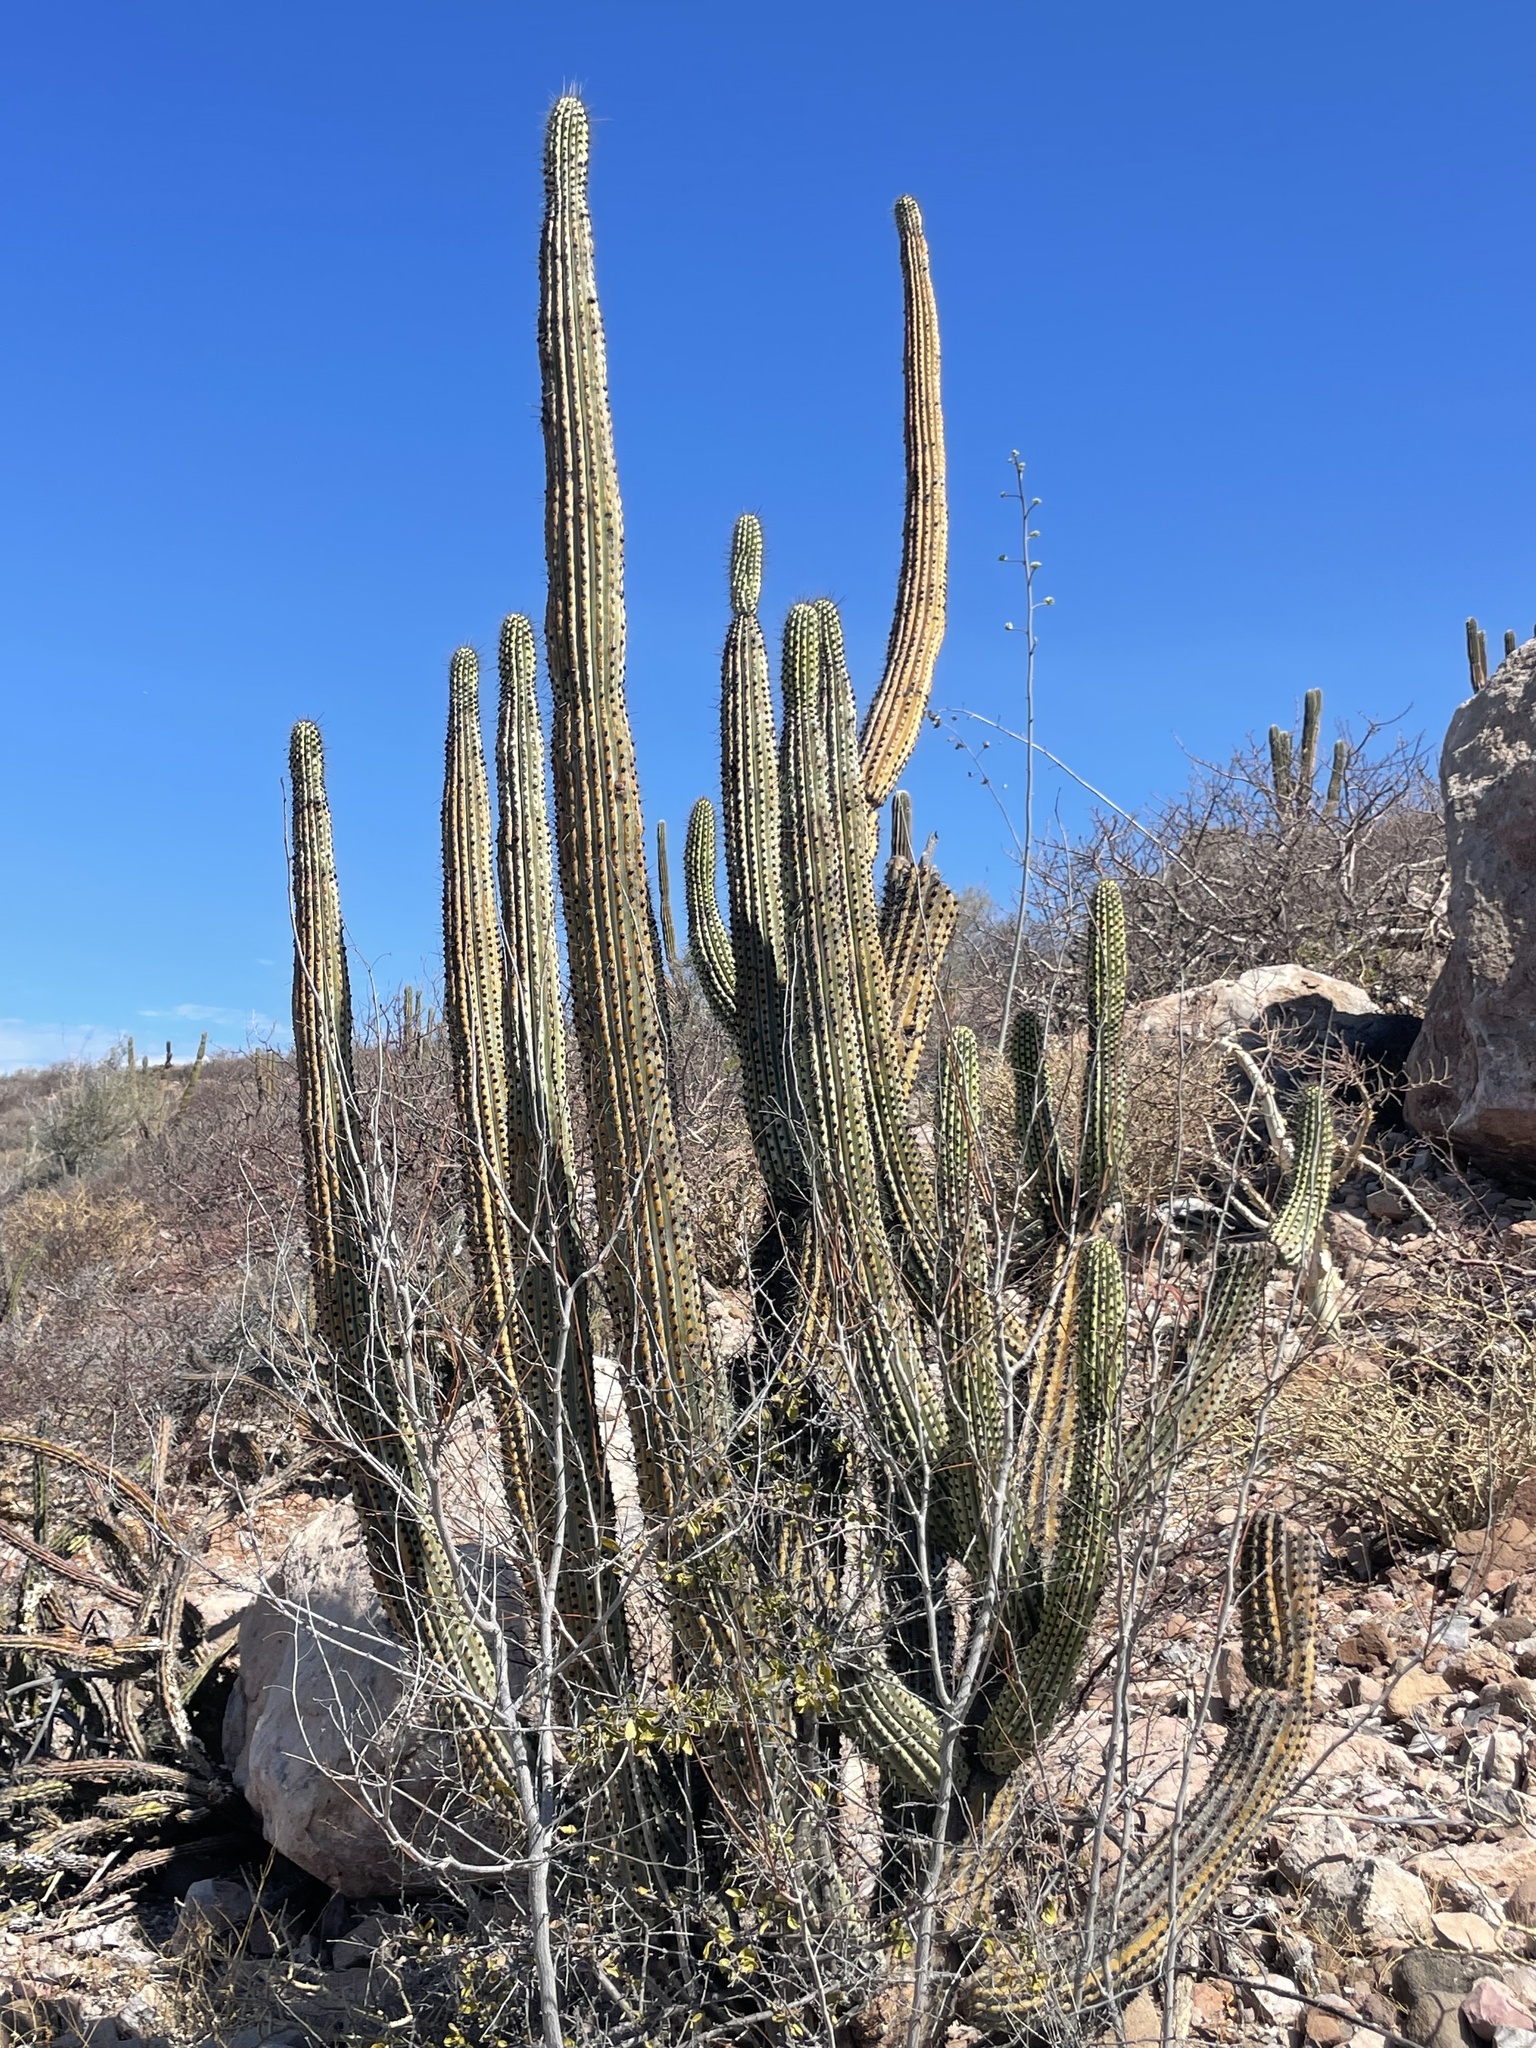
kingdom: Plantae
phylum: Tracheophyta
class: Magnoliopsida
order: Caryophyllales
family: Cactaceae
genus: Stenocereus
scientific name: Stenocereus thurberi
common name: Organ pipe cactus
